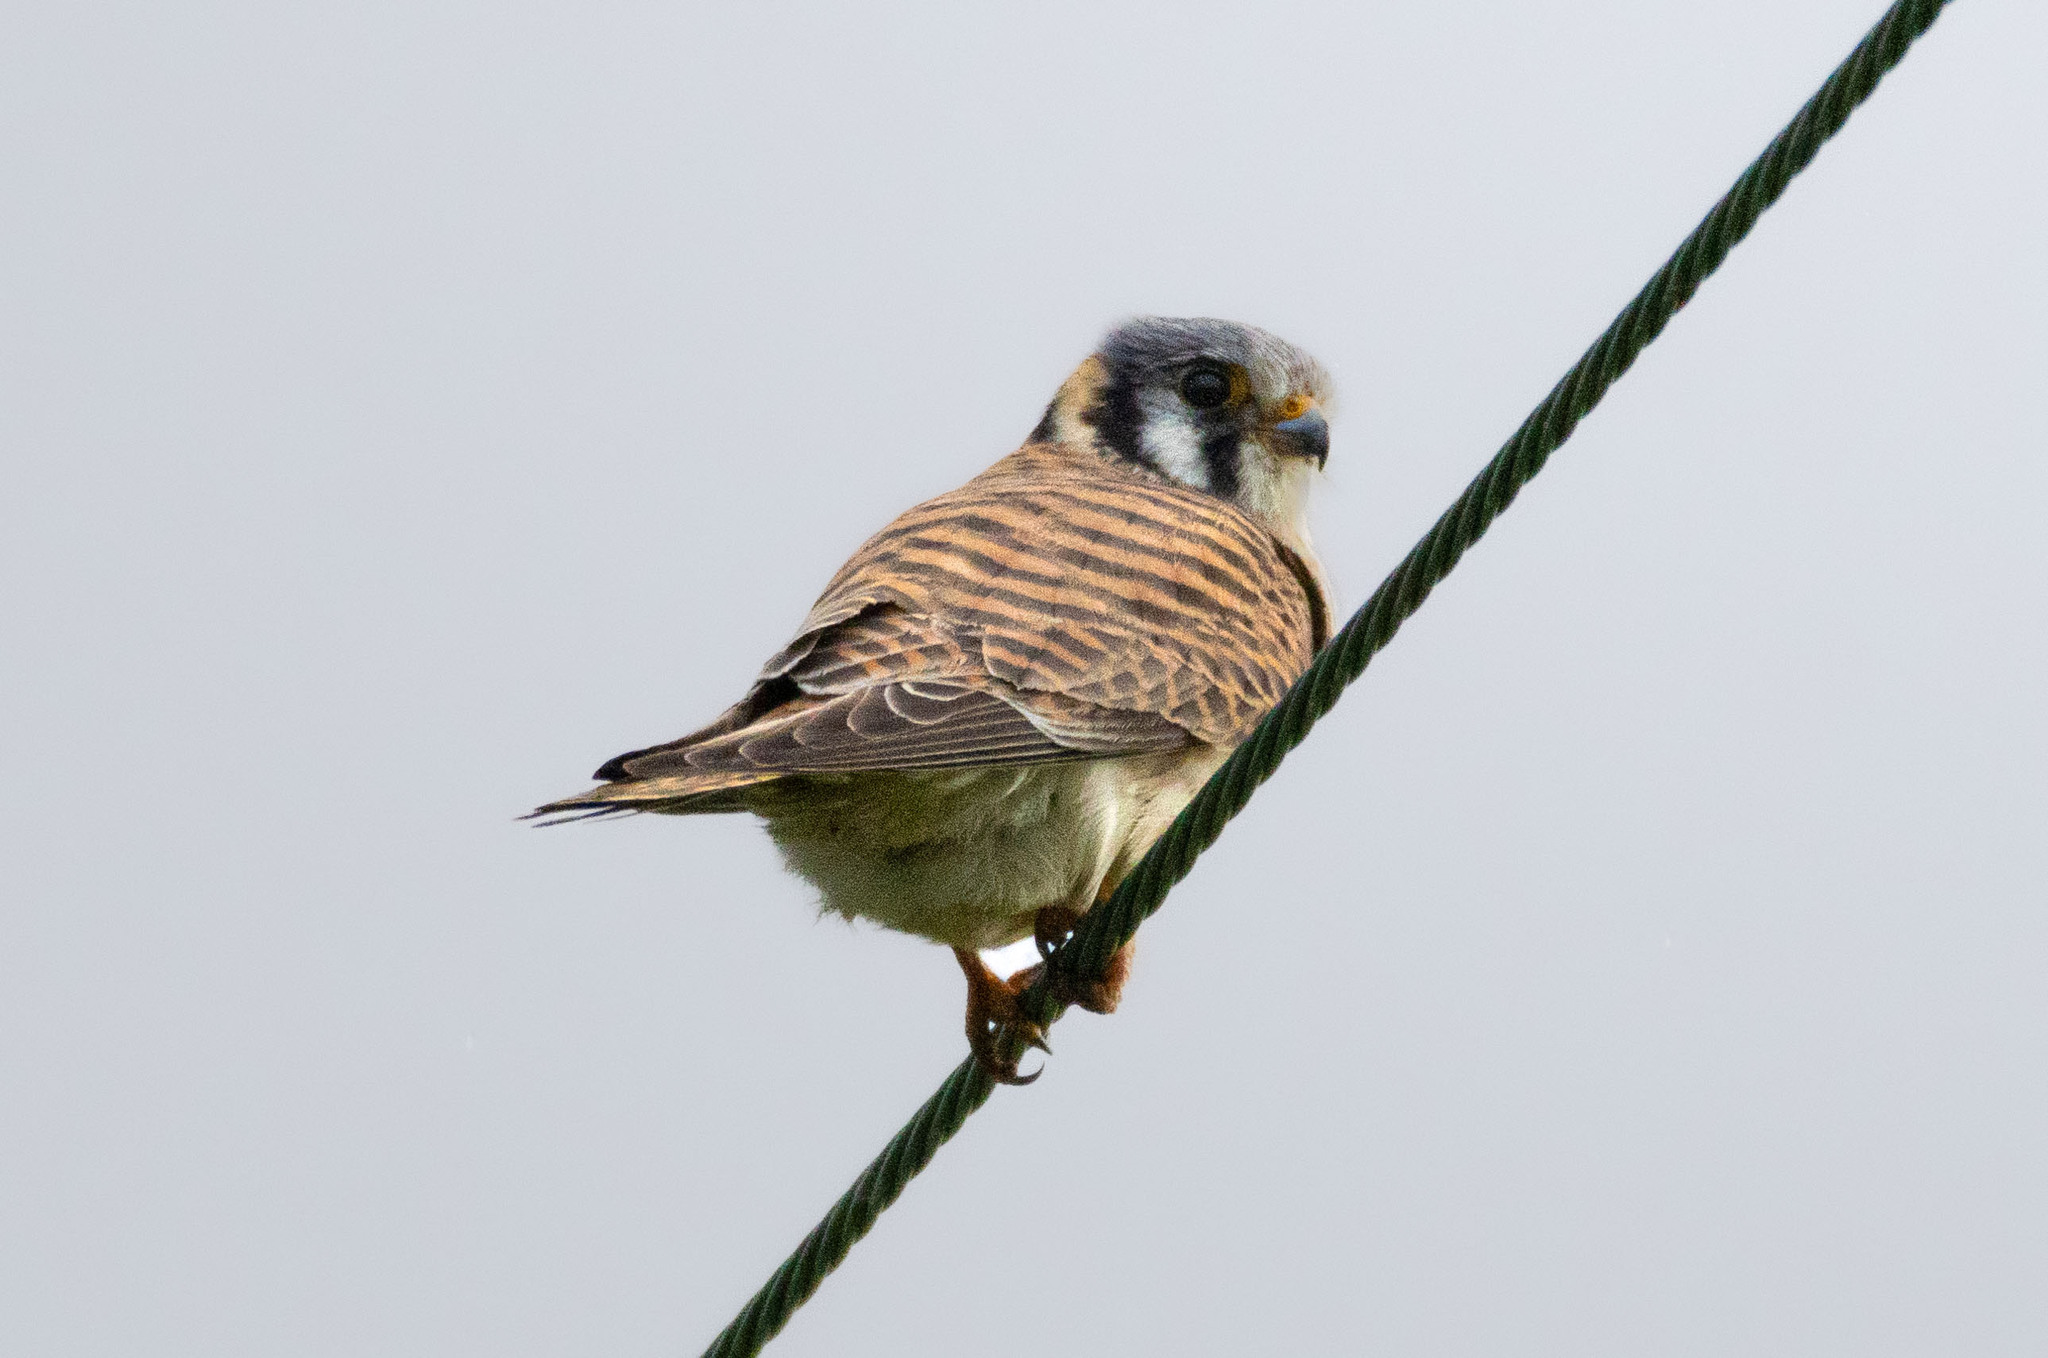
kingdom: Animalia
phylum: Chordata
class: Aves
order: Falconiformes
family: Falconidae
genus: Falco
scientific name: Falco sparverius
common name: American kestrel
